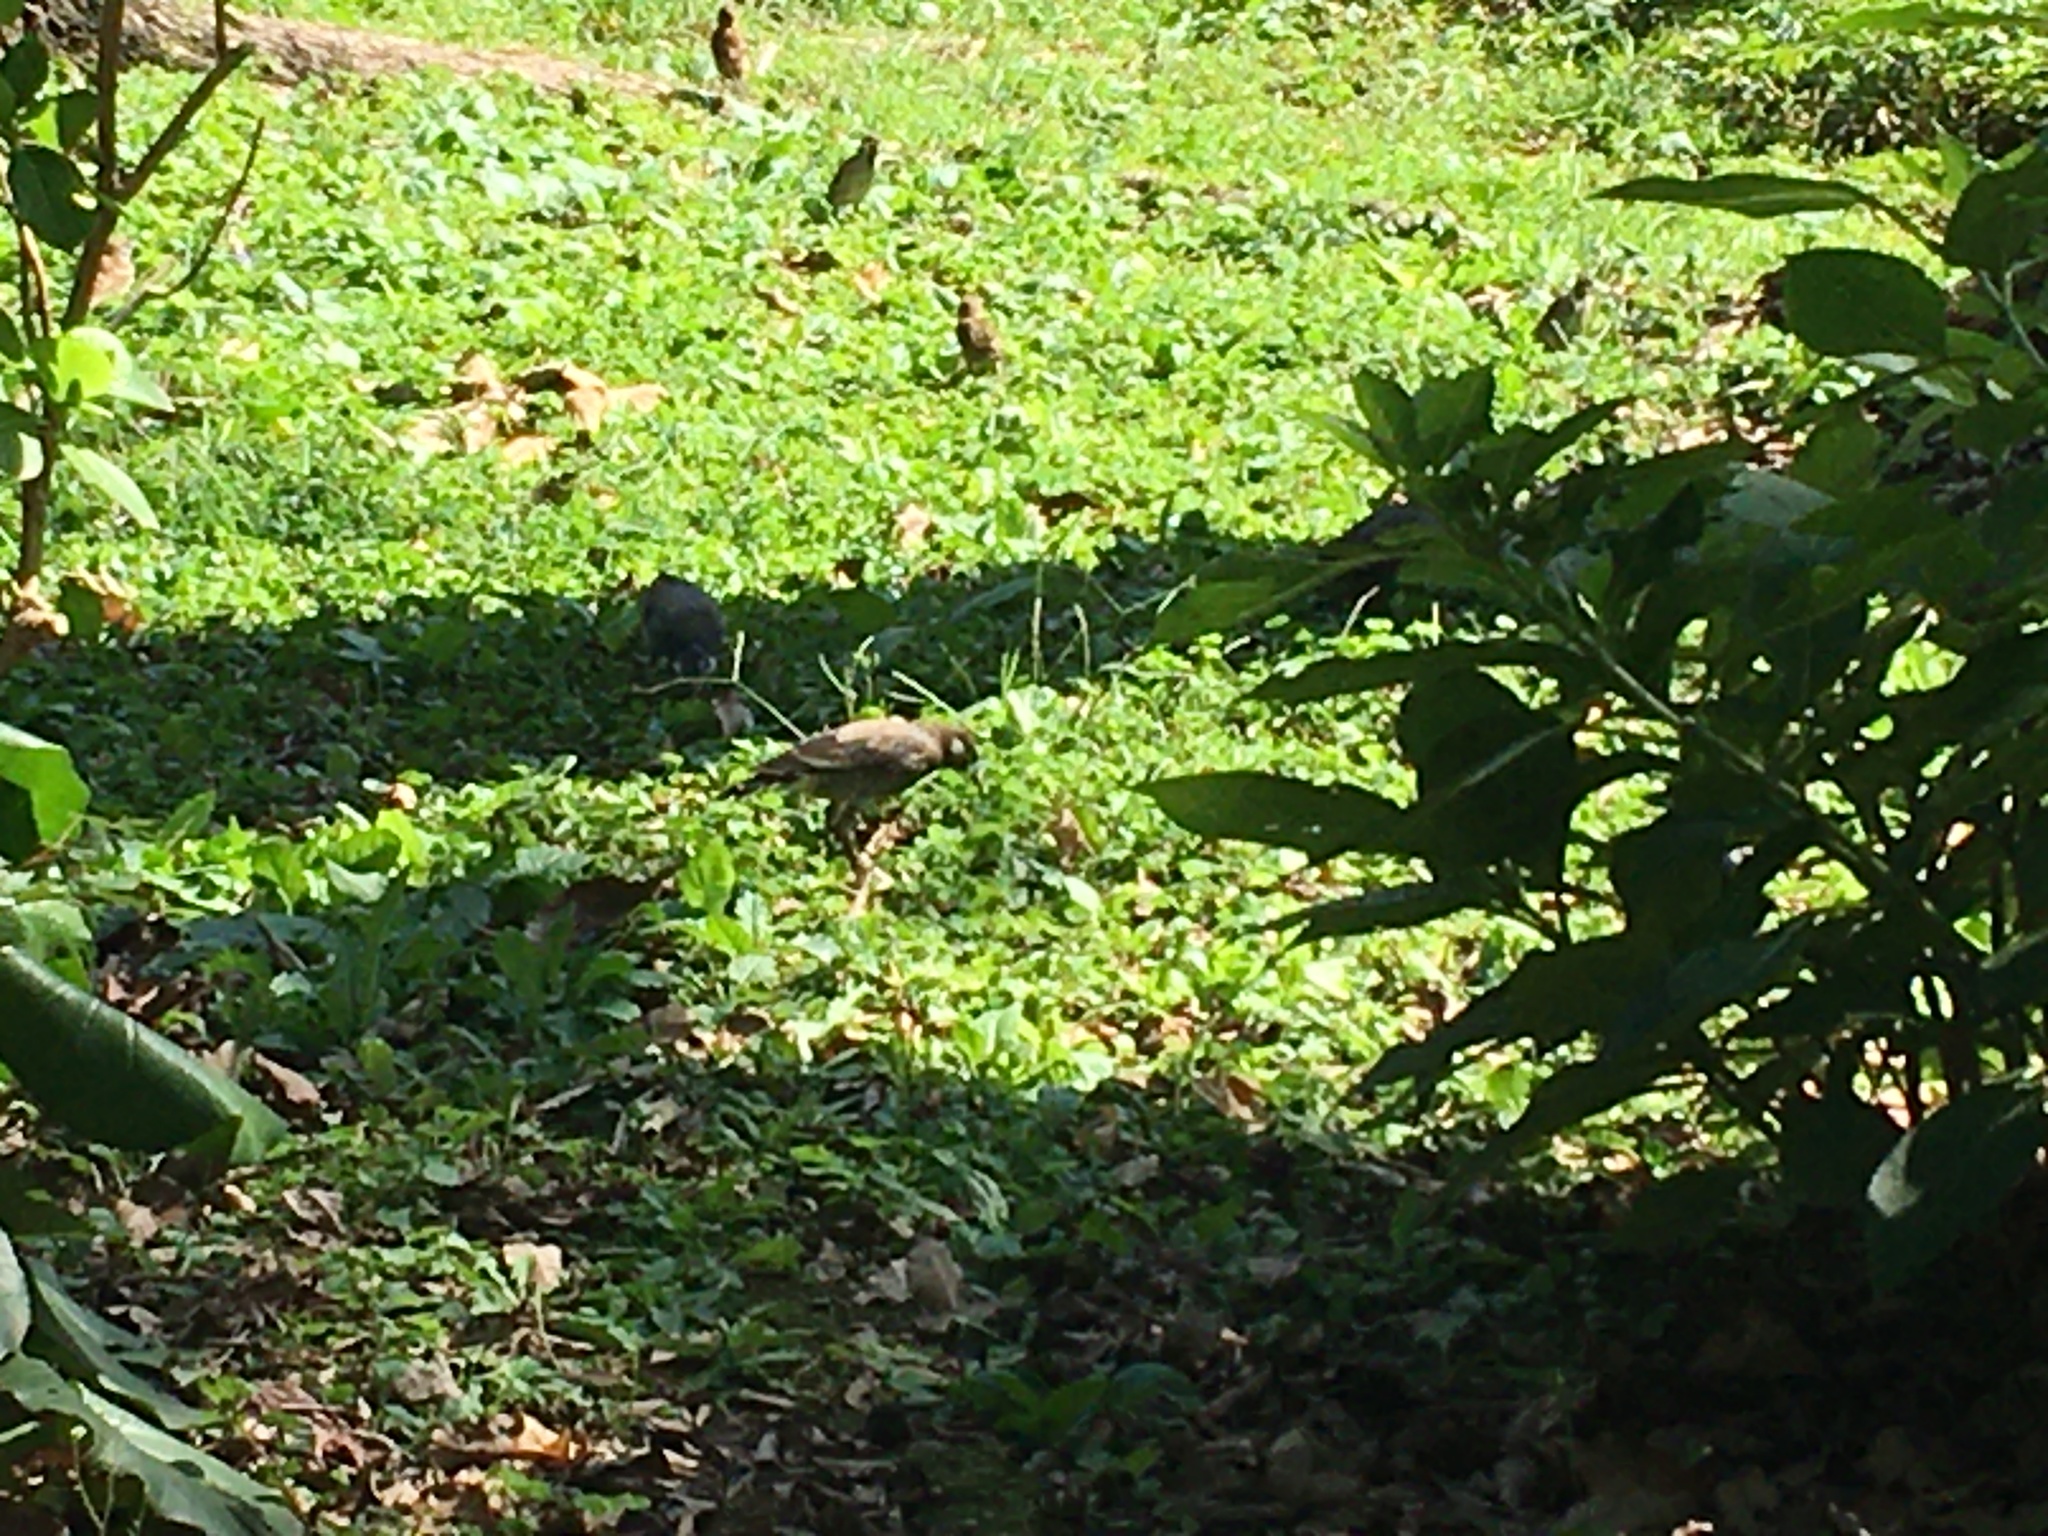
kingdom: Animalia
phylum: Chordata
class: Aves
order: Passeriformes
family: Sturnidae
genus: Spodiopsar
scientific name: Spodiopsar cineraceus
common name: White-cheeked starling
